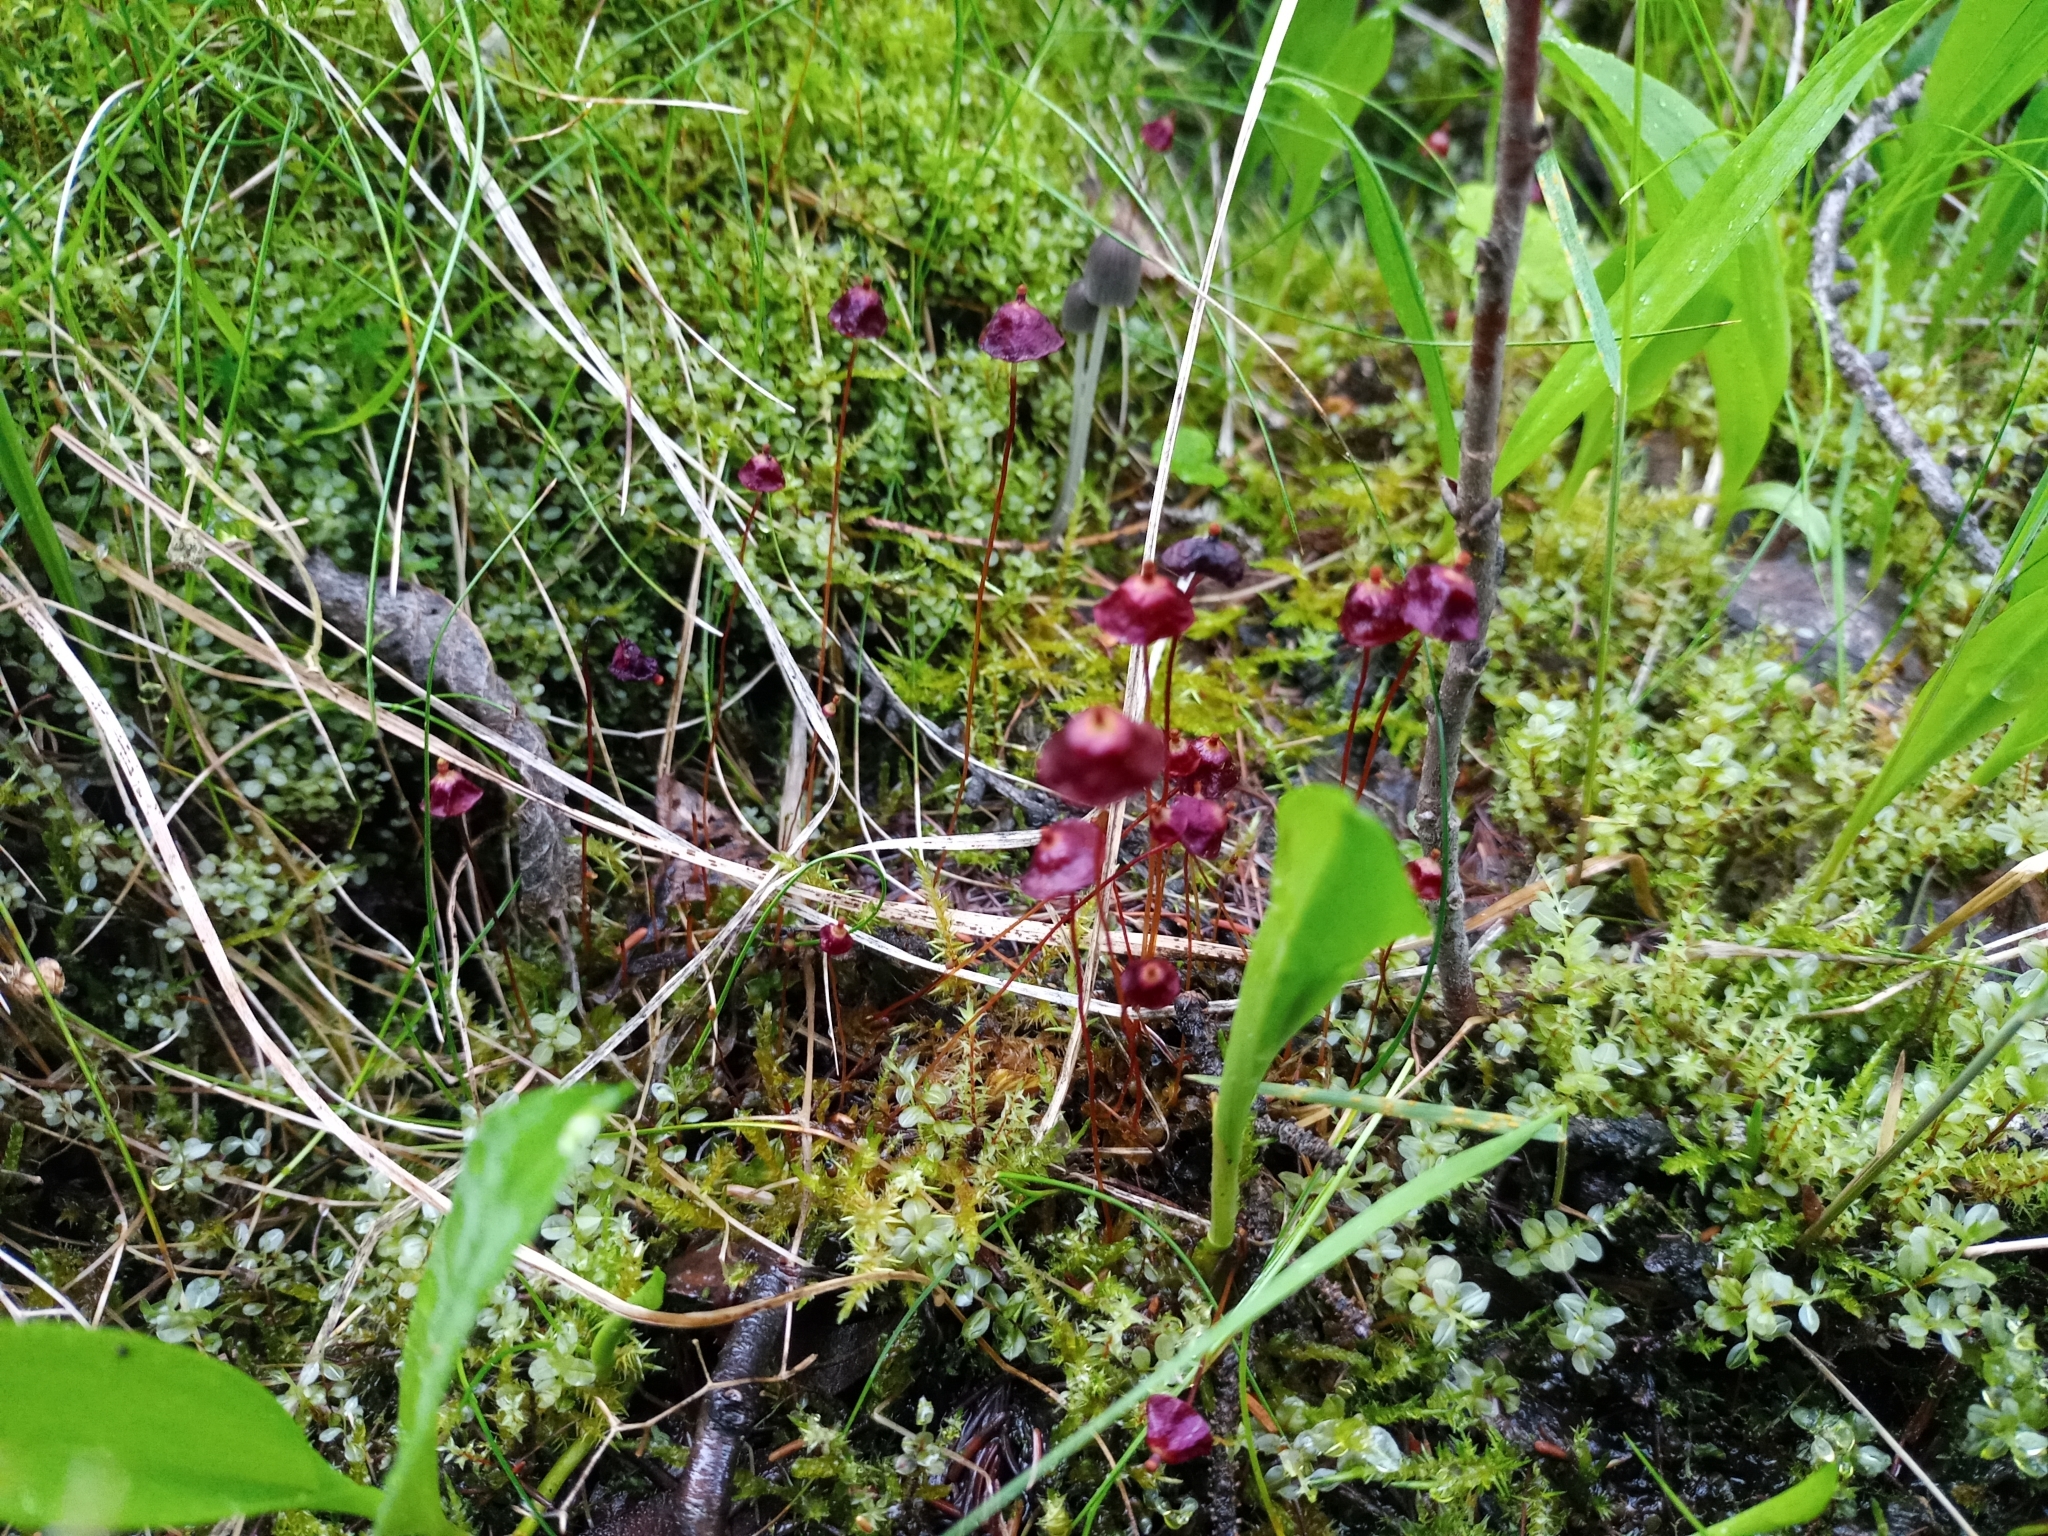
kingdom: Plantae
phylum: Bryophyta
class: Bryopsida
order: Splachnales
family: Splachnaceae
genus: Splachnum
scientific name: Splachnum rubrum
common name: Red dung moss
